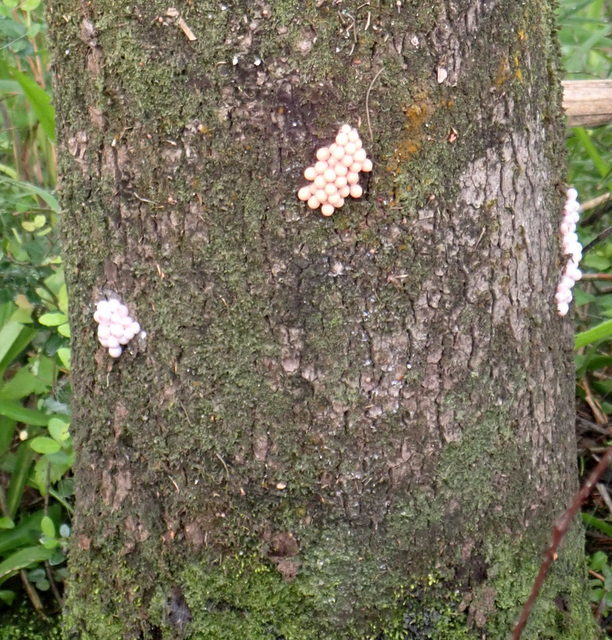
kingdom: Animalia
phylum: Mollusca
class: Gastropoda
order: Architaenioglossa
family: Ampullariidae
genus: Pomacea
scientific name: Pomacea paludosa
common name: Florida applesnail
